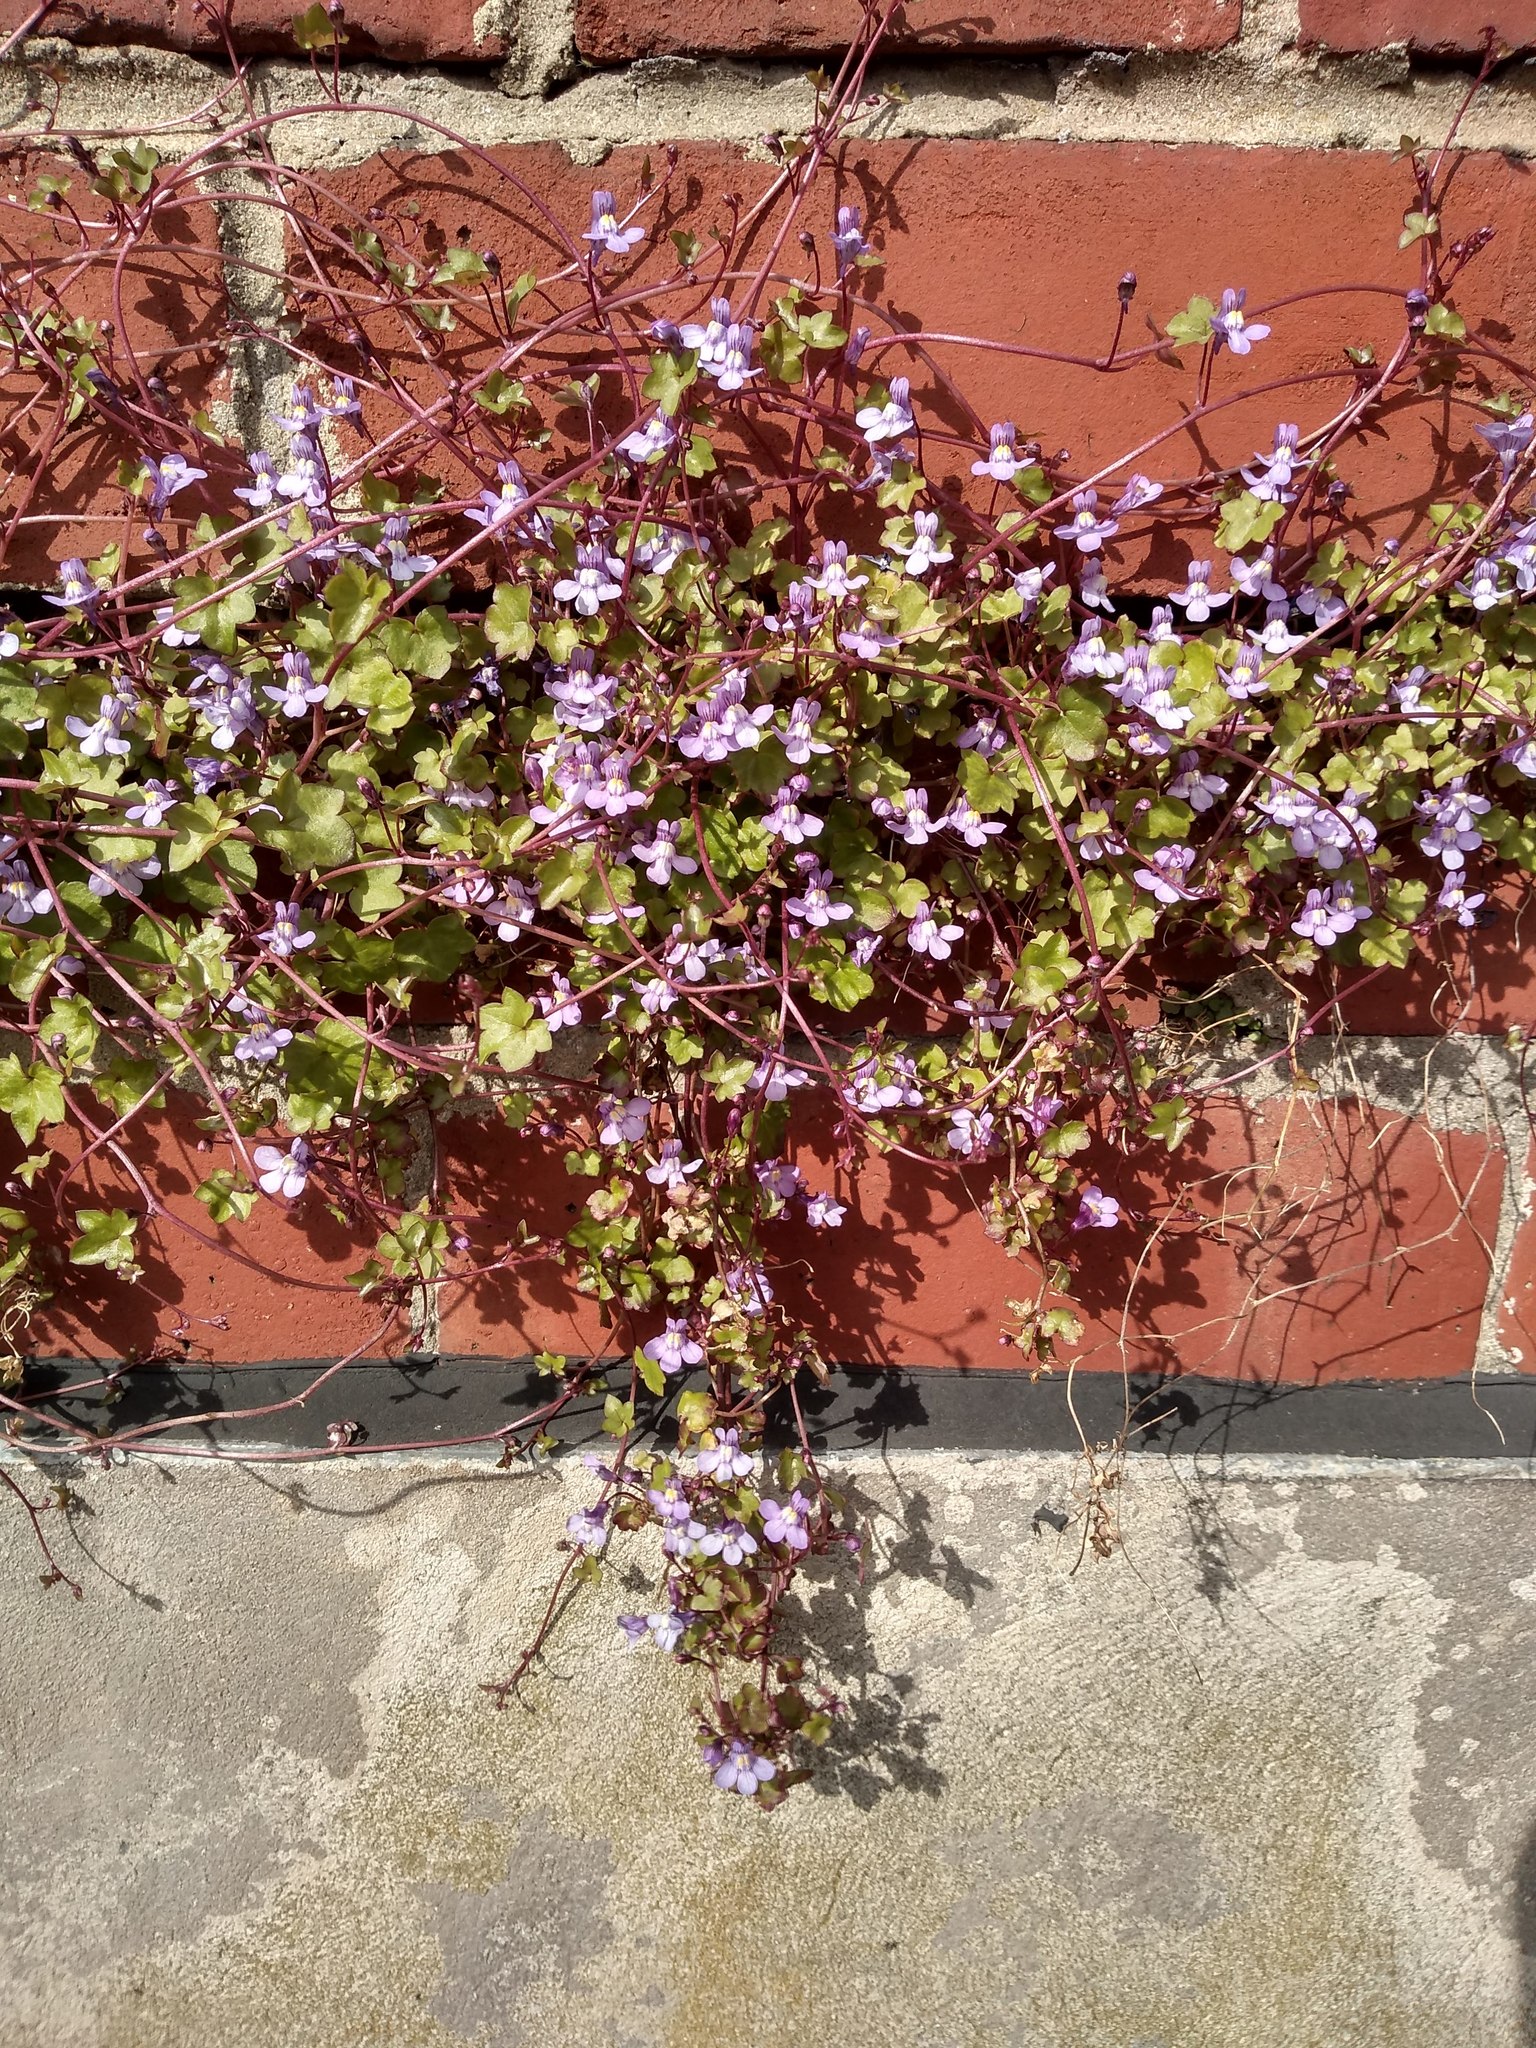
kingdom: Plantae
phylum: Tracheophyta
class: Magnoliopsida
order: Lamiales
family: Plantaginaceae
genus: Cymbalaria
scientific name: Cymbalaria muralis
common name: Ivy-leaved toadflax
